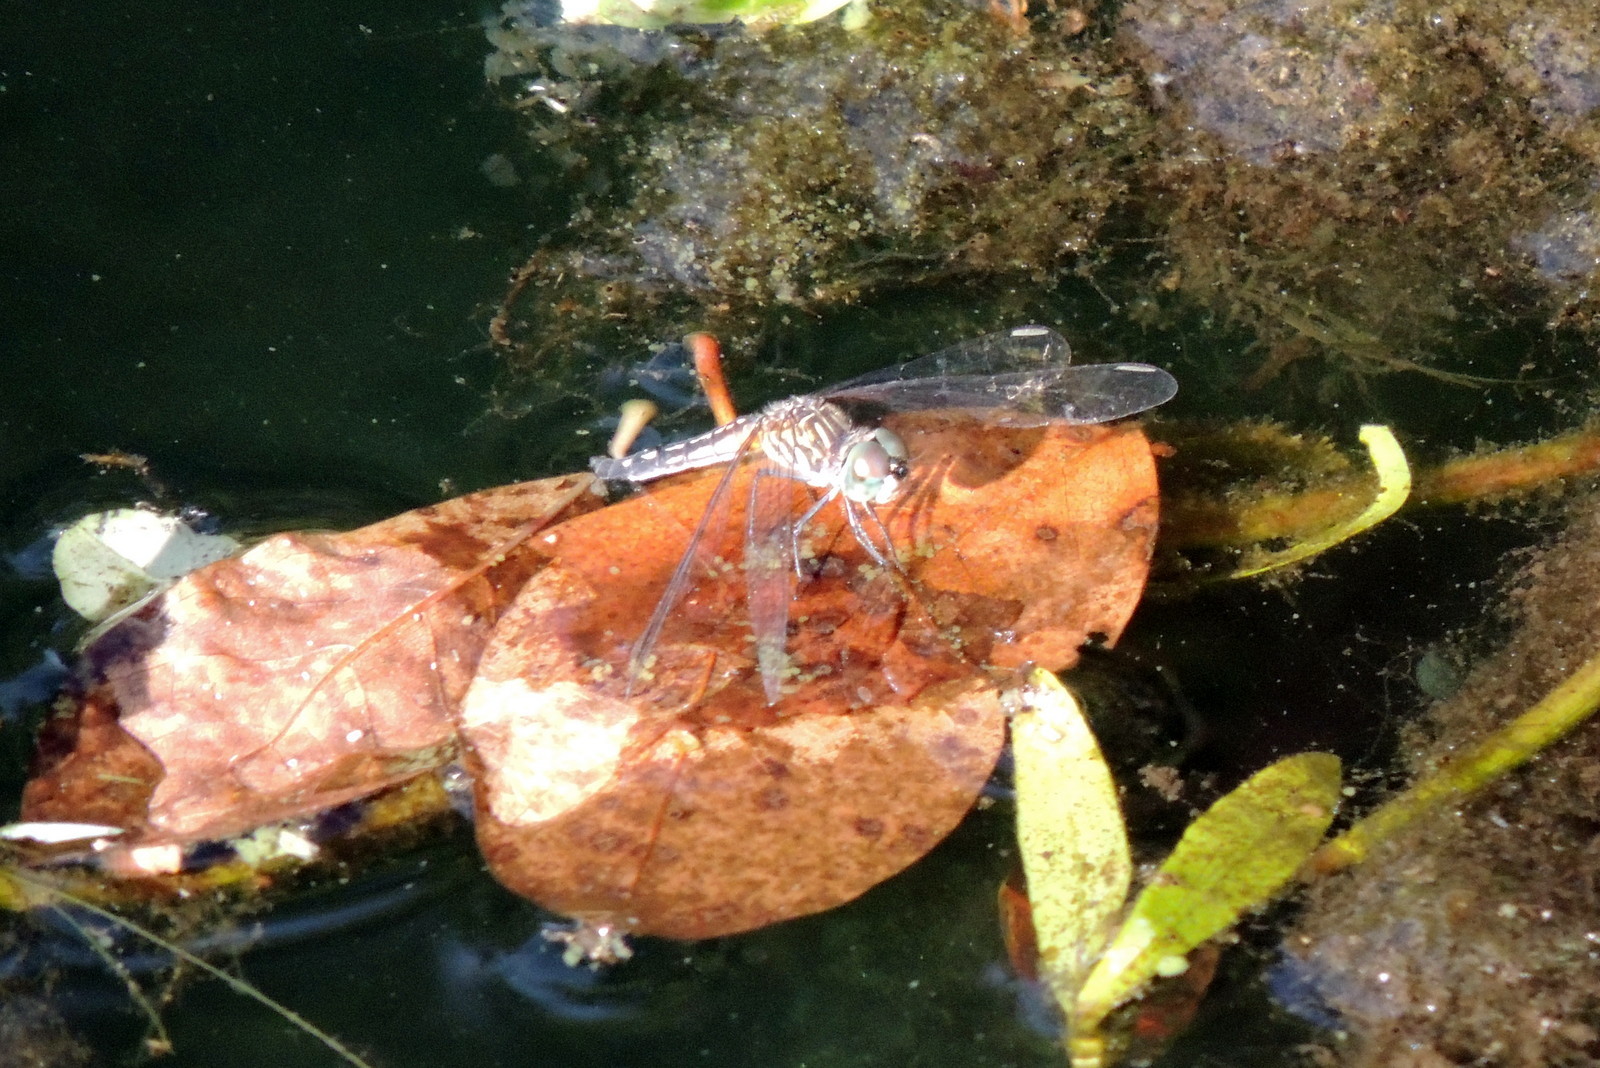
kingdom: Animalia
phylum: Arthropoda
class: Insecta
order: Odonata
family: Libellulidae
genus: Pachydiplax
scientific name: Pachydiplax longipennis
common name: Blue dasher
